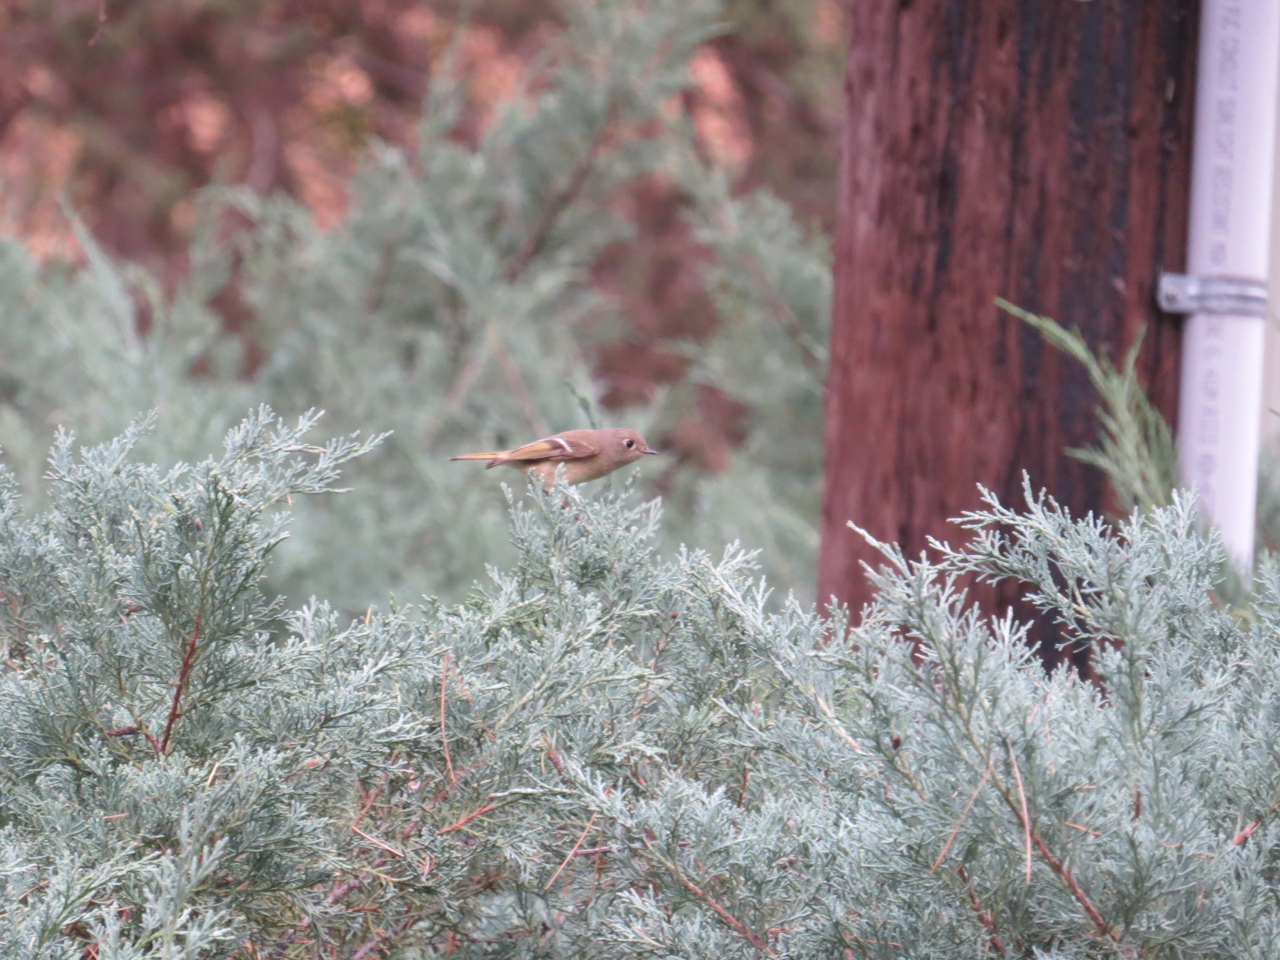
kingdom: Animalia
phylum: Chordata
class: Aves
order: Passeriformes
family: Regulidae
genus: Regulus
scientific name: Regulus calendula
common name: Ruby-crowned kinglet
